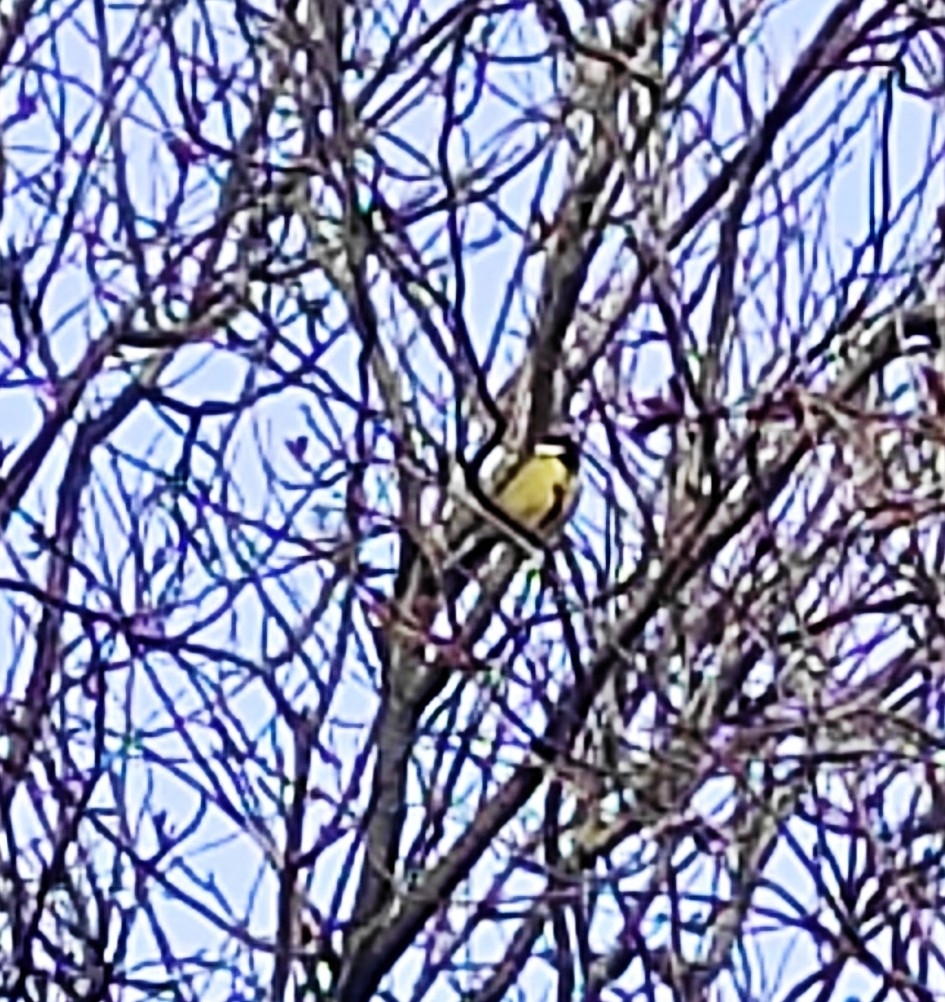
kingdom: Animalia
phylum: Chordata
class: Aves
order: Passeriformes
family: Paridae
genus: Parus
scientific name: Parus major
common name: Great tit
